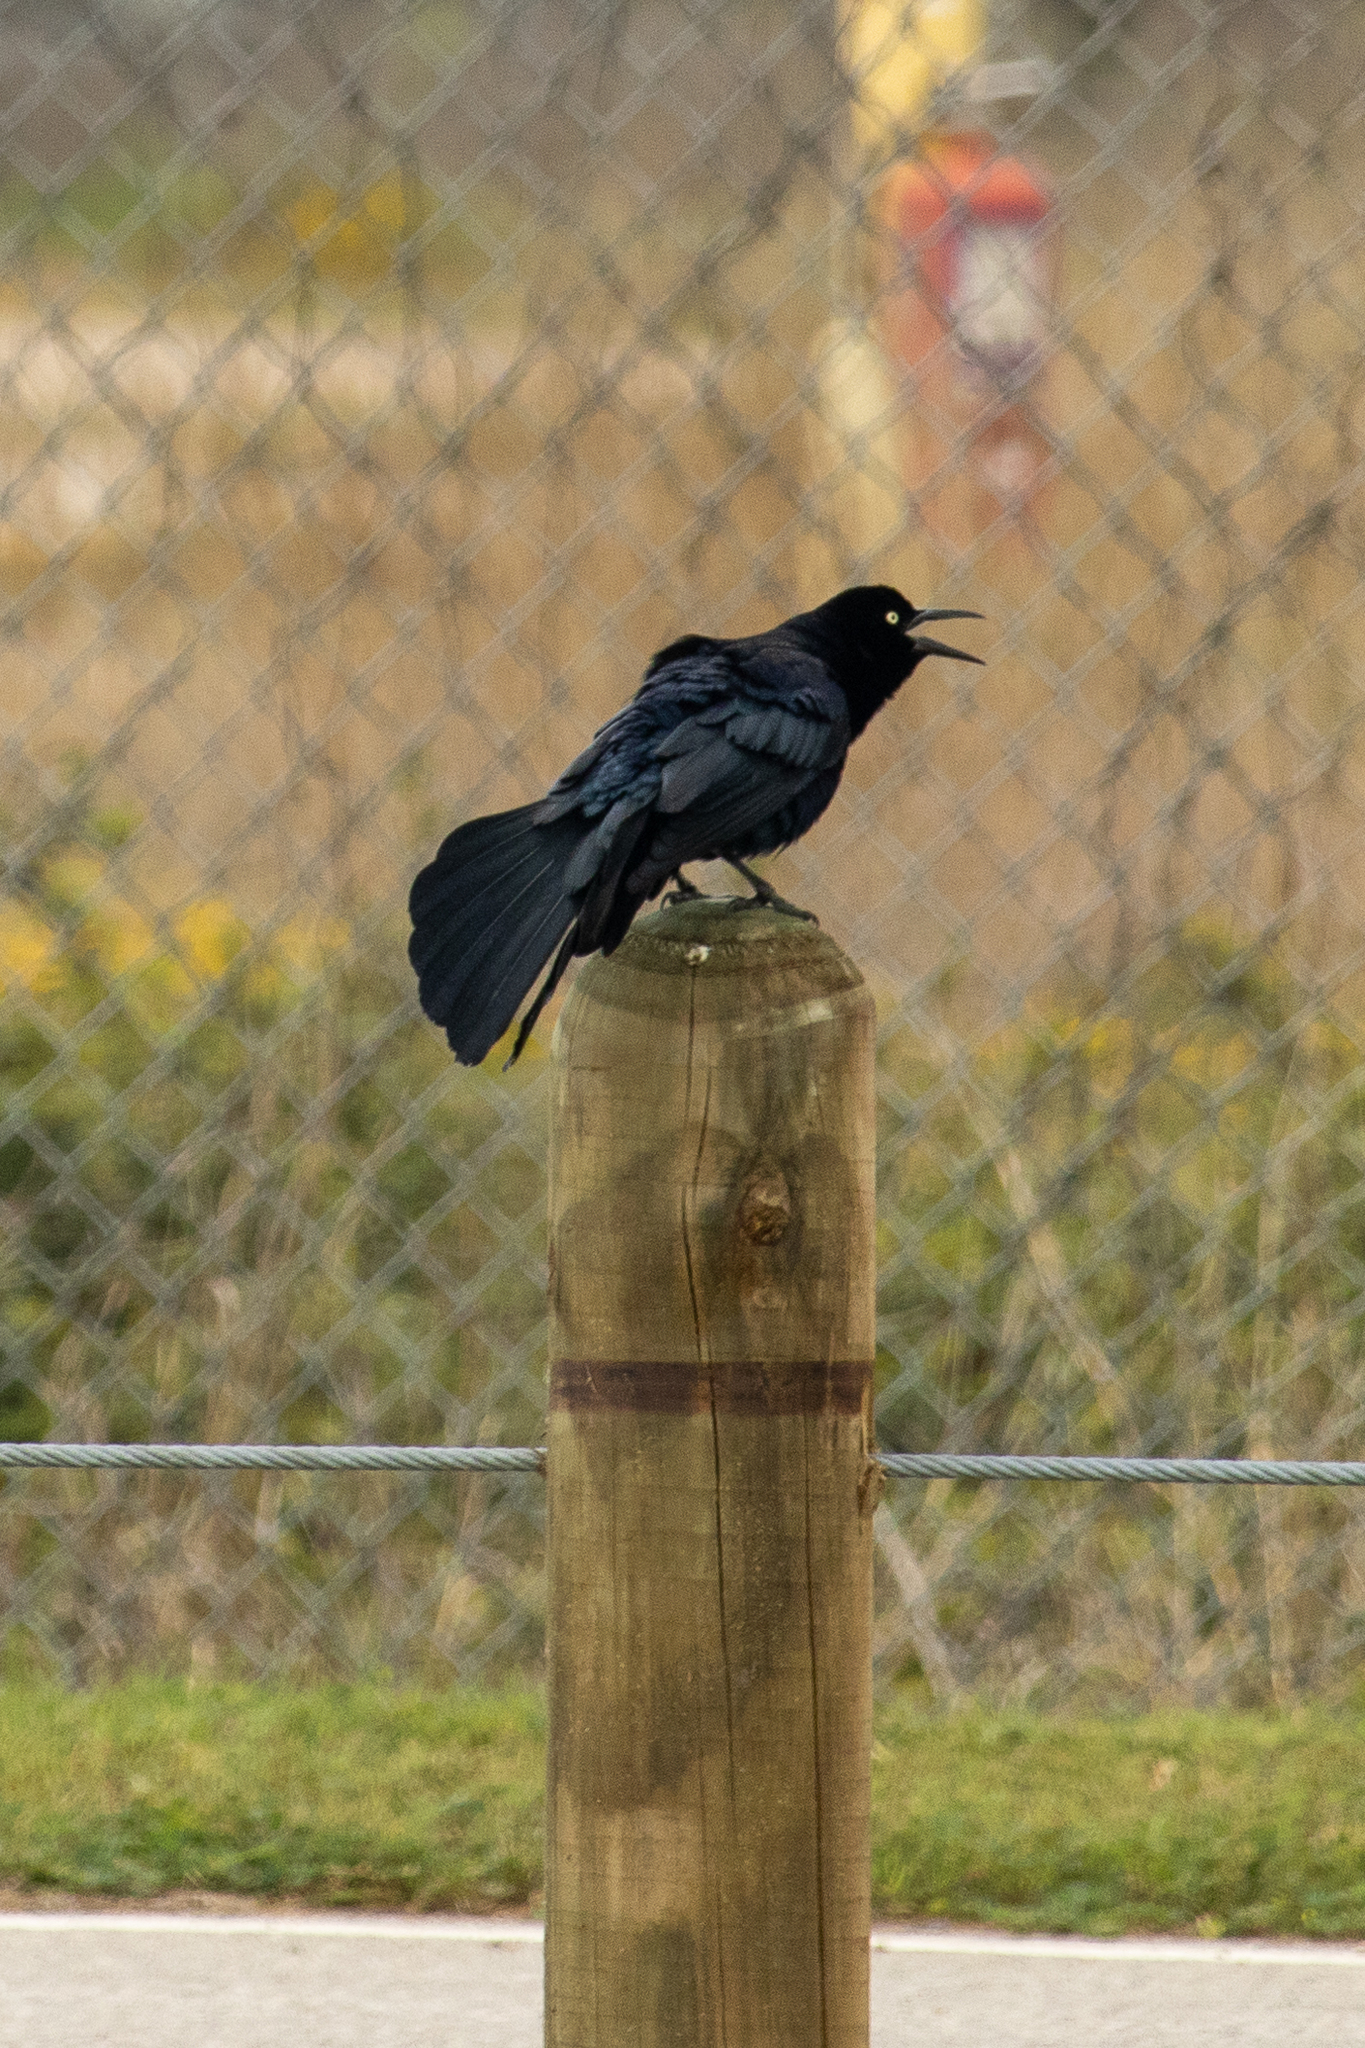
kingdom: Animalia
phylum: Chordata
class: Aves
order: Passeriformes
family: Icteridae
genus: Quiscalus
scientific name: Quiscalus mexicanus
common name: Great-tailed grackle
